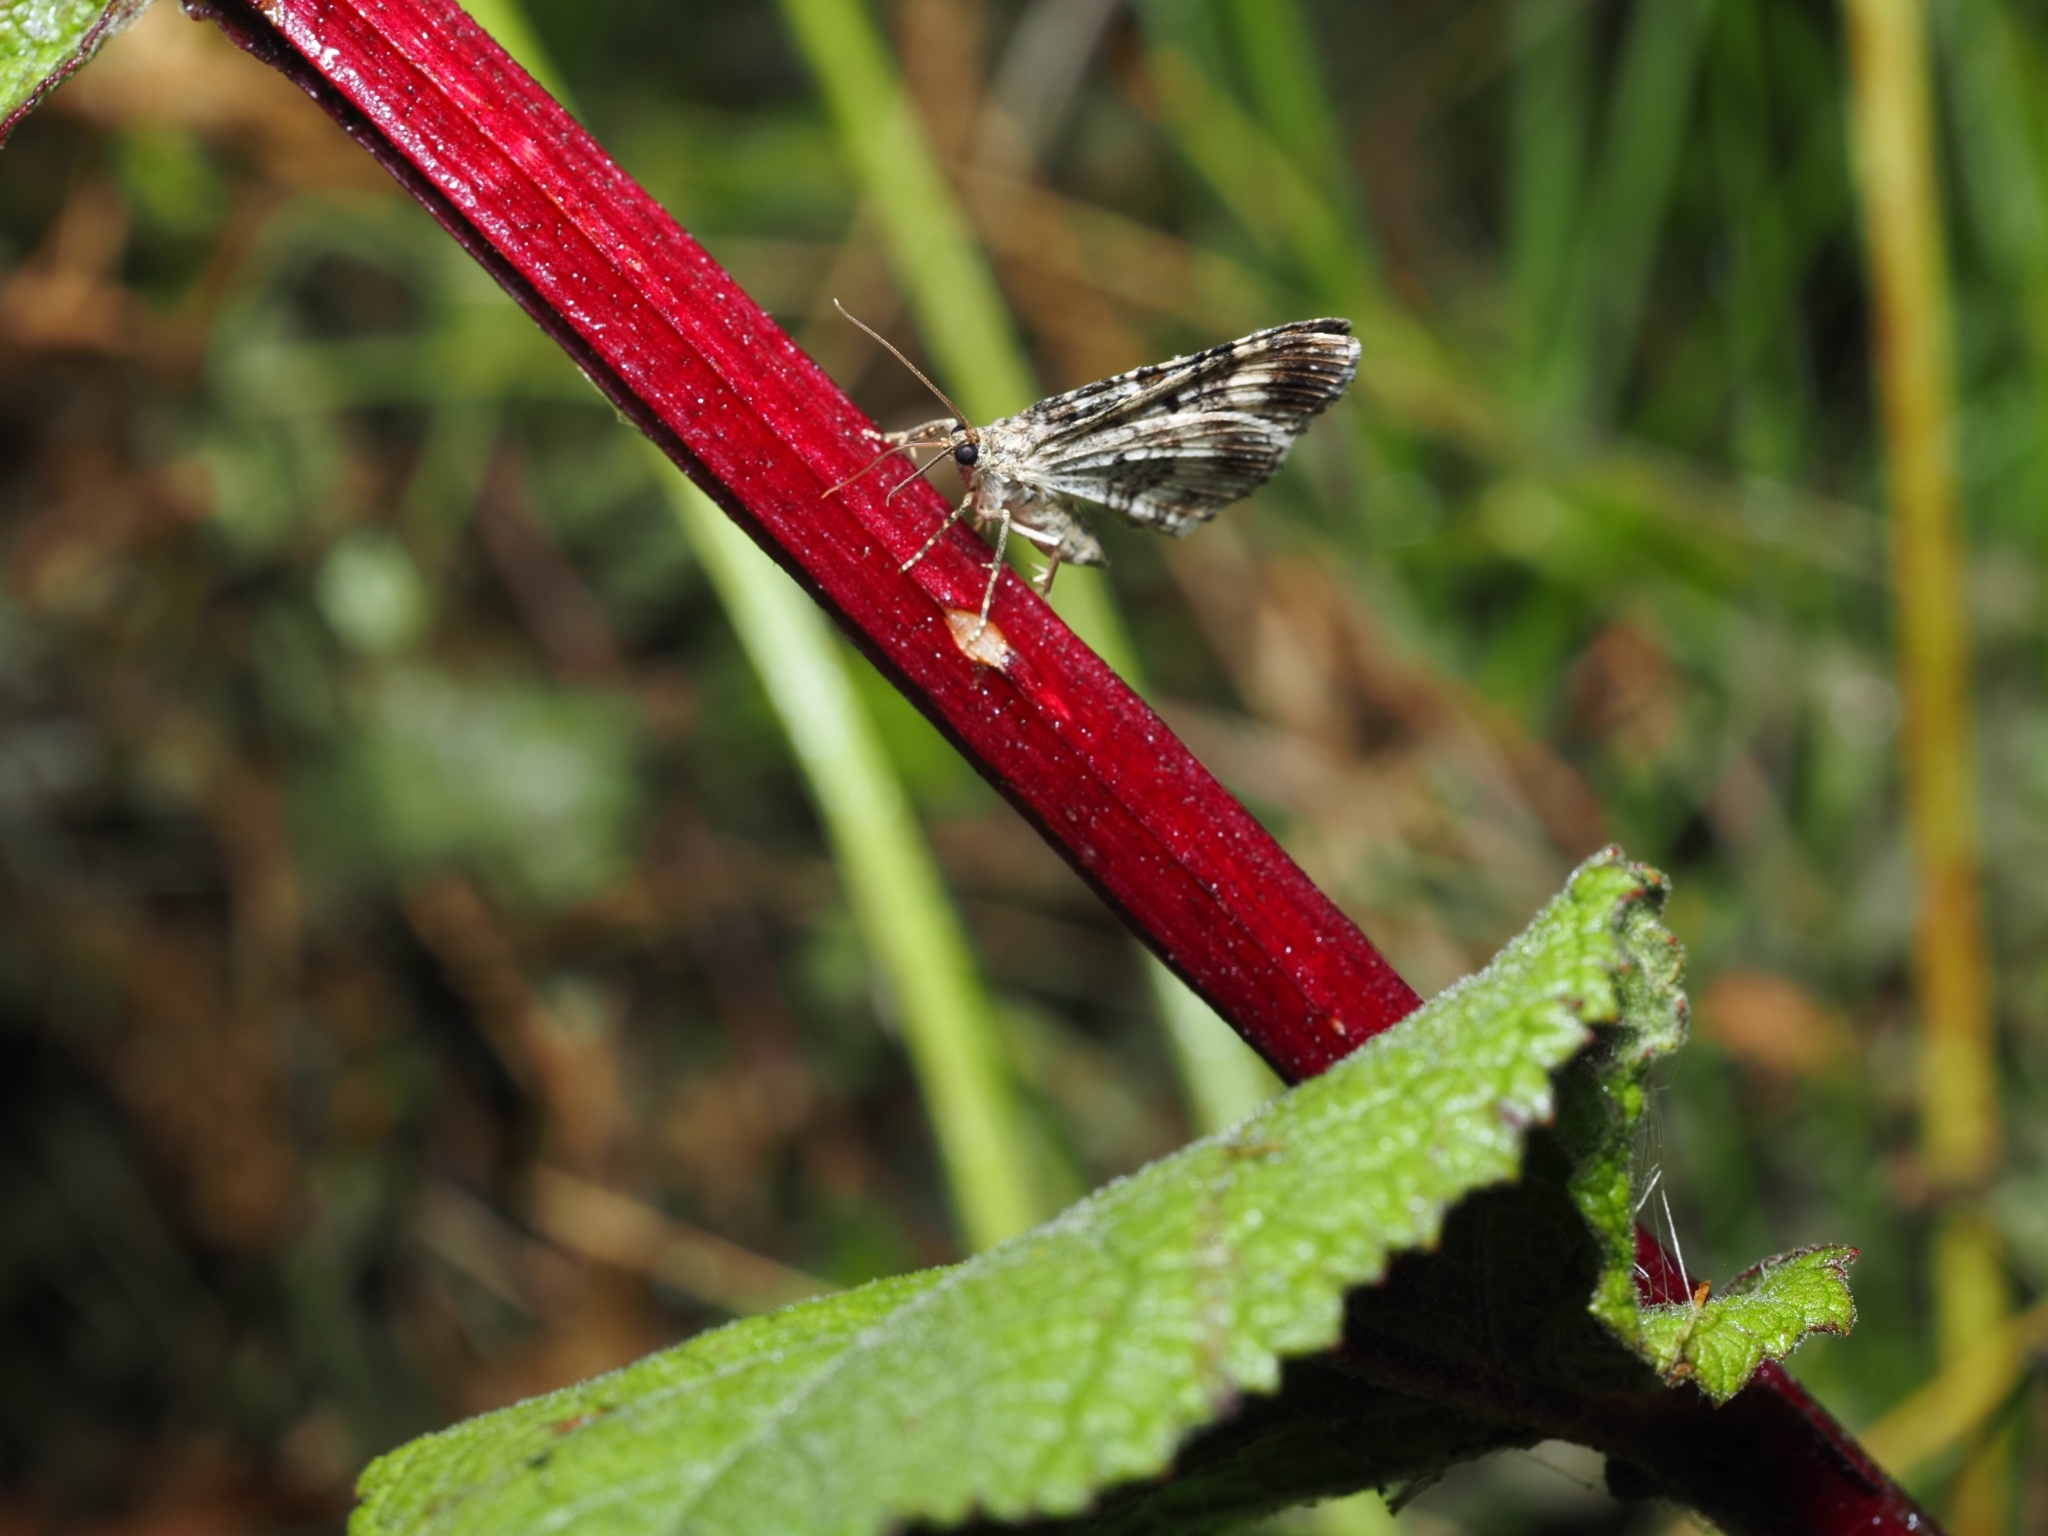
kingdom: Animalia
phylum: Arthropoda
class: Insecta
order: Lepidoptera
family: Geometridae
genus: Epirrhoe
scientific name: Epirrhoe alternata
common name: Common carpet
